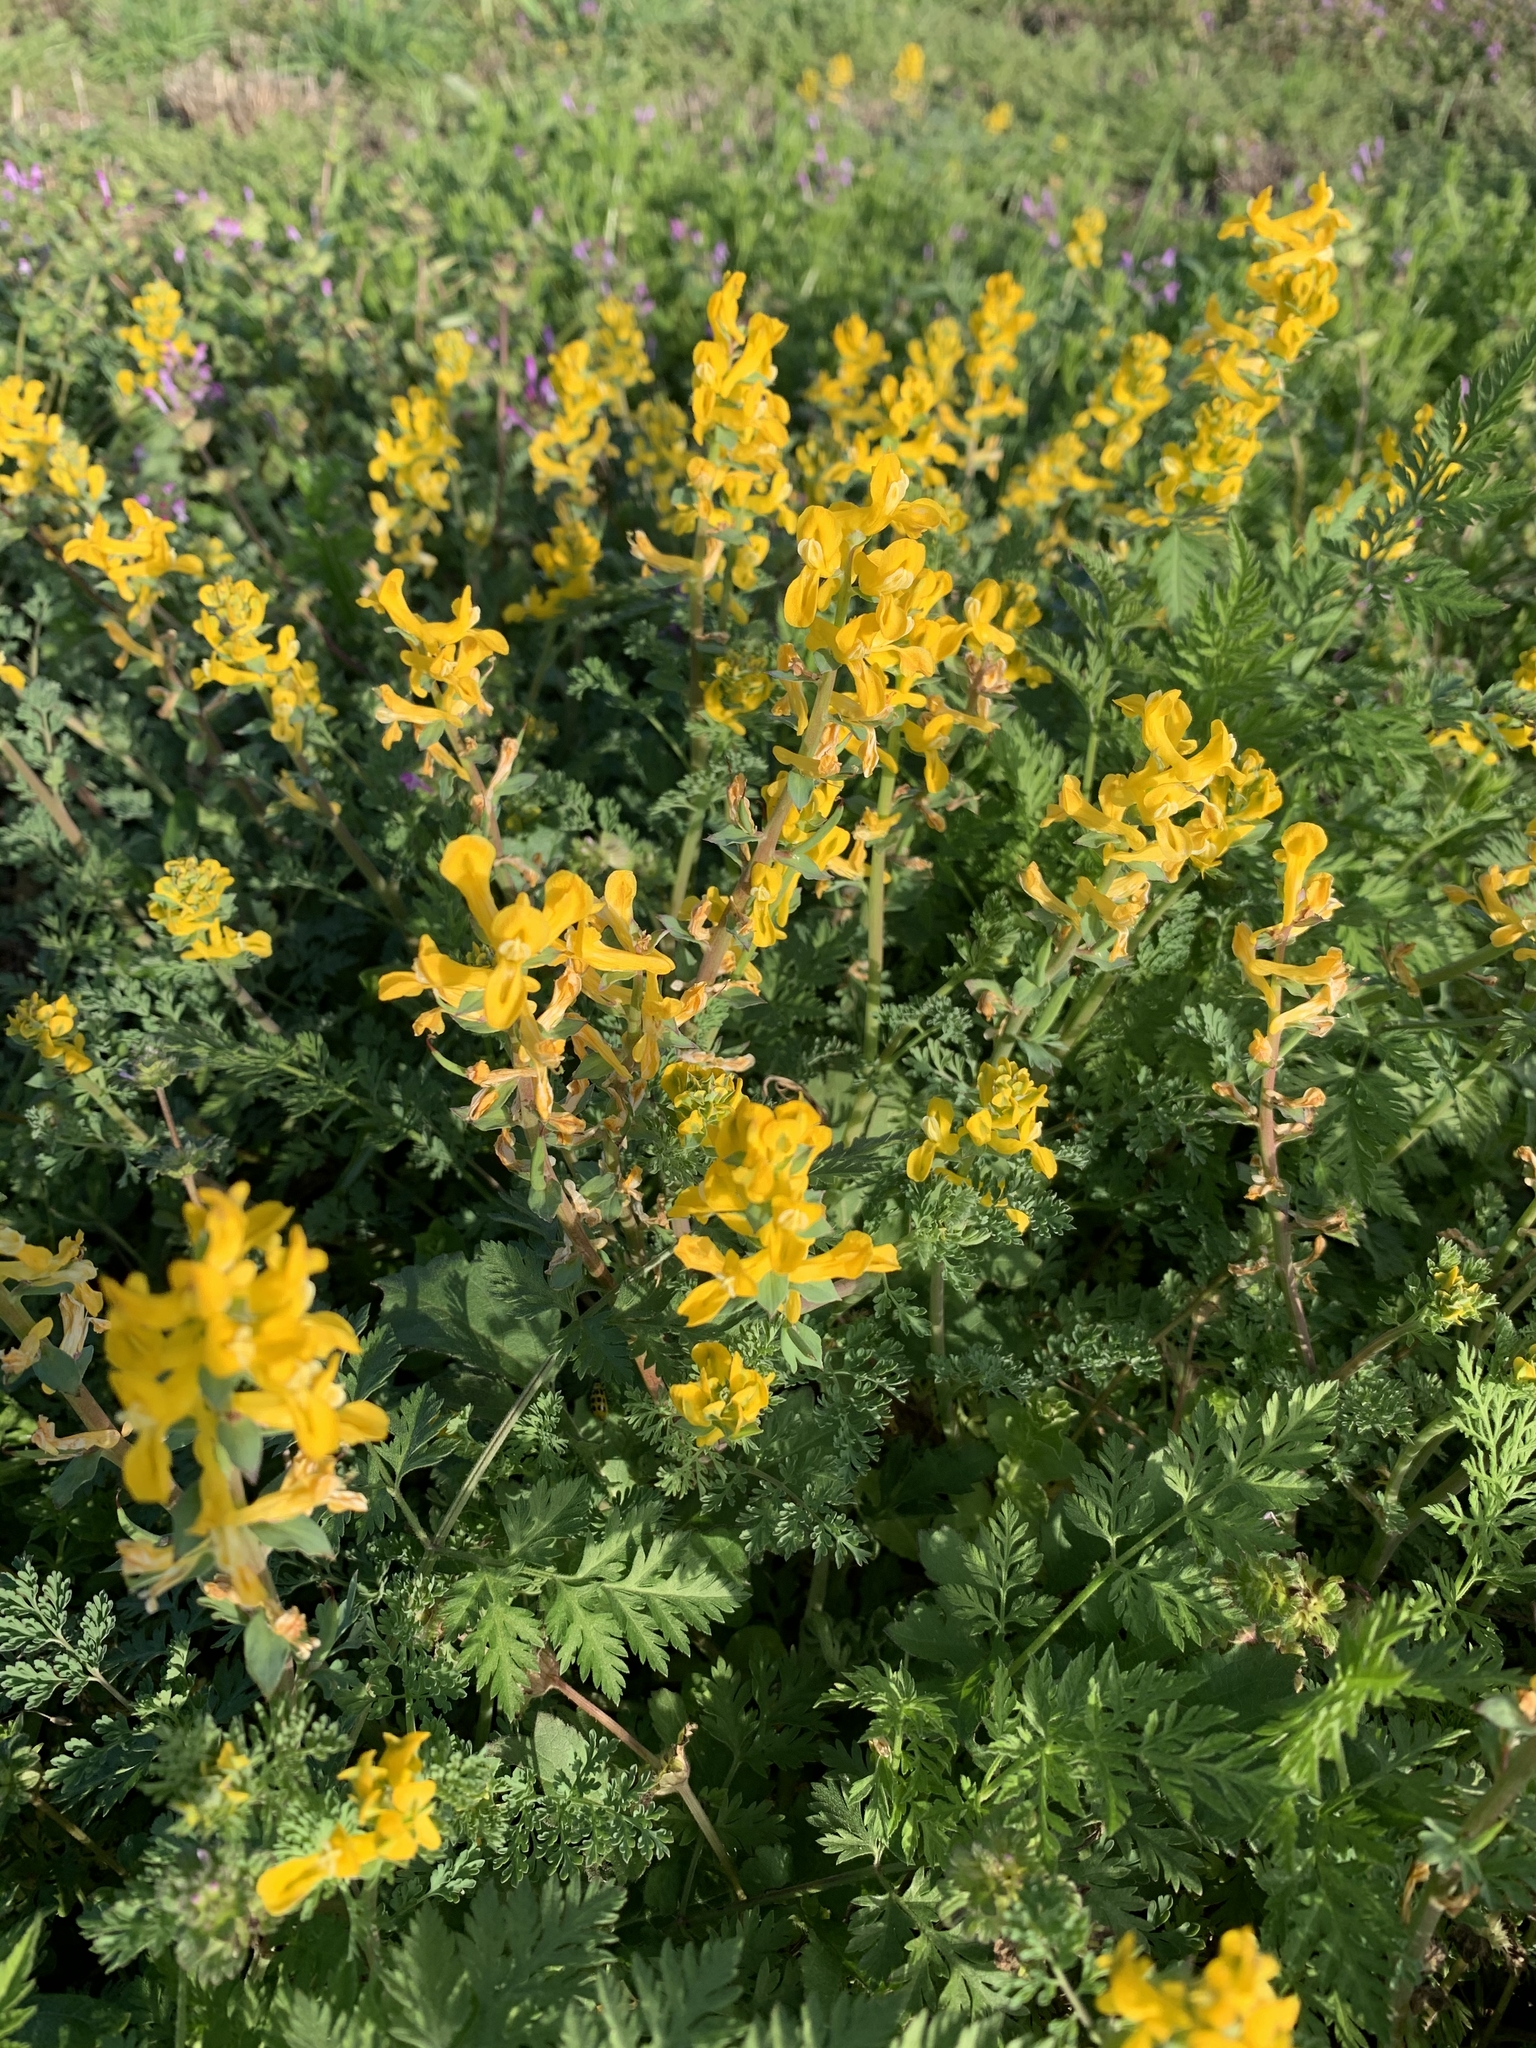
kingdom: Plantae
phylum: Tracheophyta
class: Magnoliopsida
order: Ranunculales
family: Papaveraceae
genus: Corydalis
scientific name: Corydalis curvisiliqua
